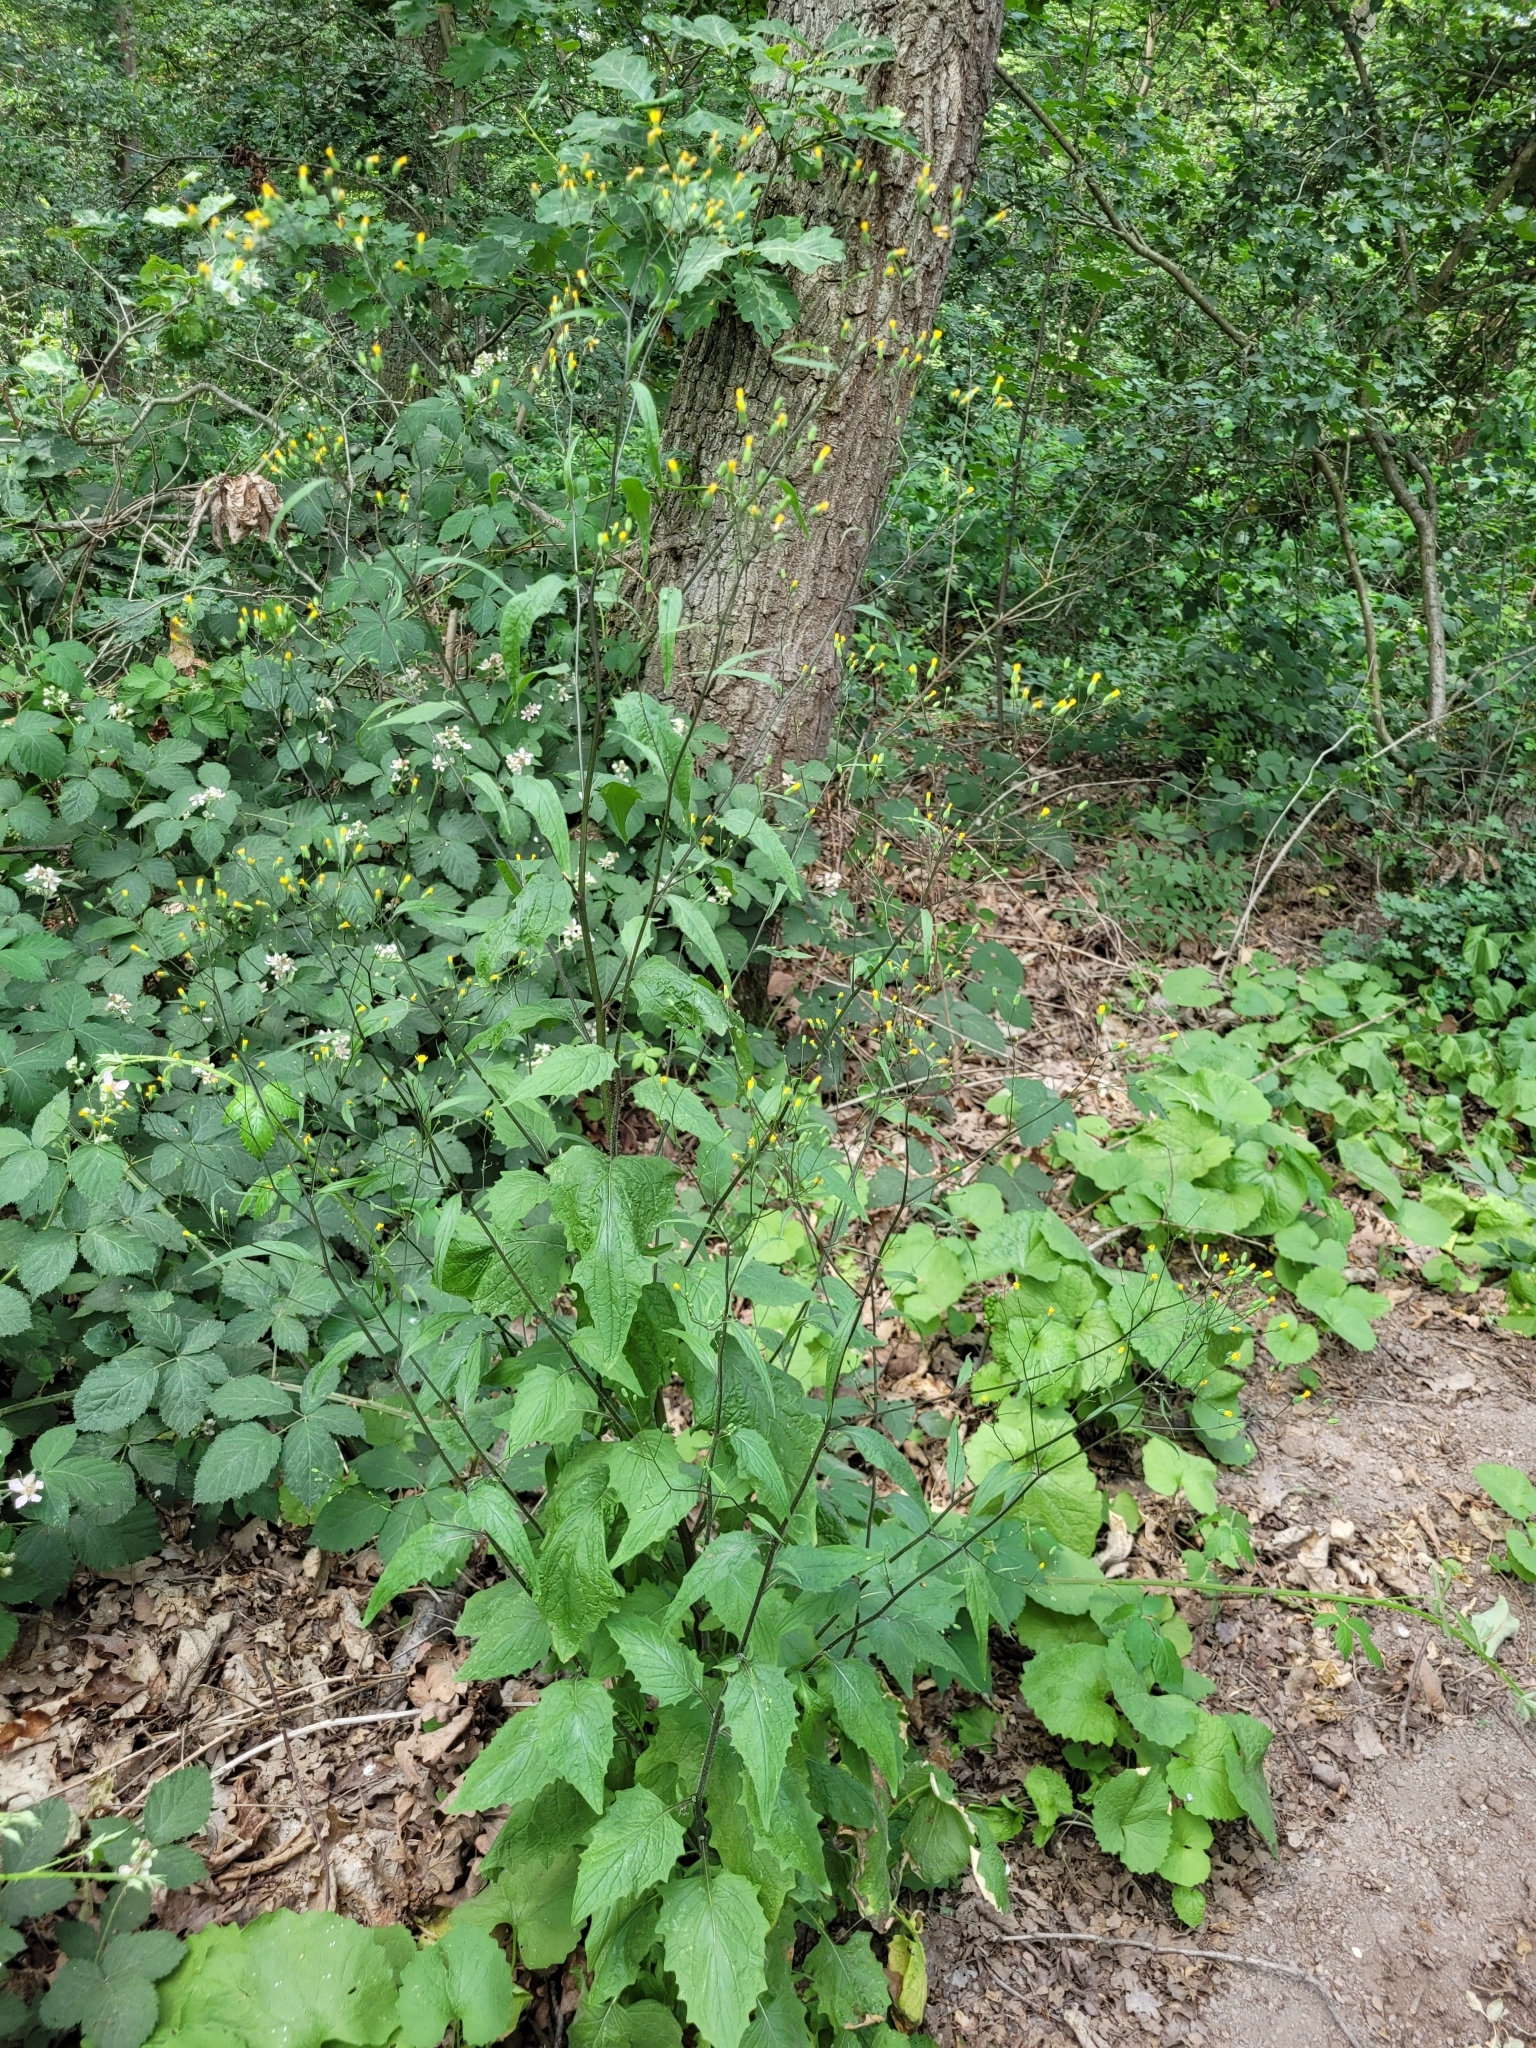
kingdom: Plantae
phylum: Tracheophyta
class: Magnoliopsida
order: Asterales
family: Asteraceae
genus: Lapsana
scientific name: Lapsana communis
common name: Nipplewort
